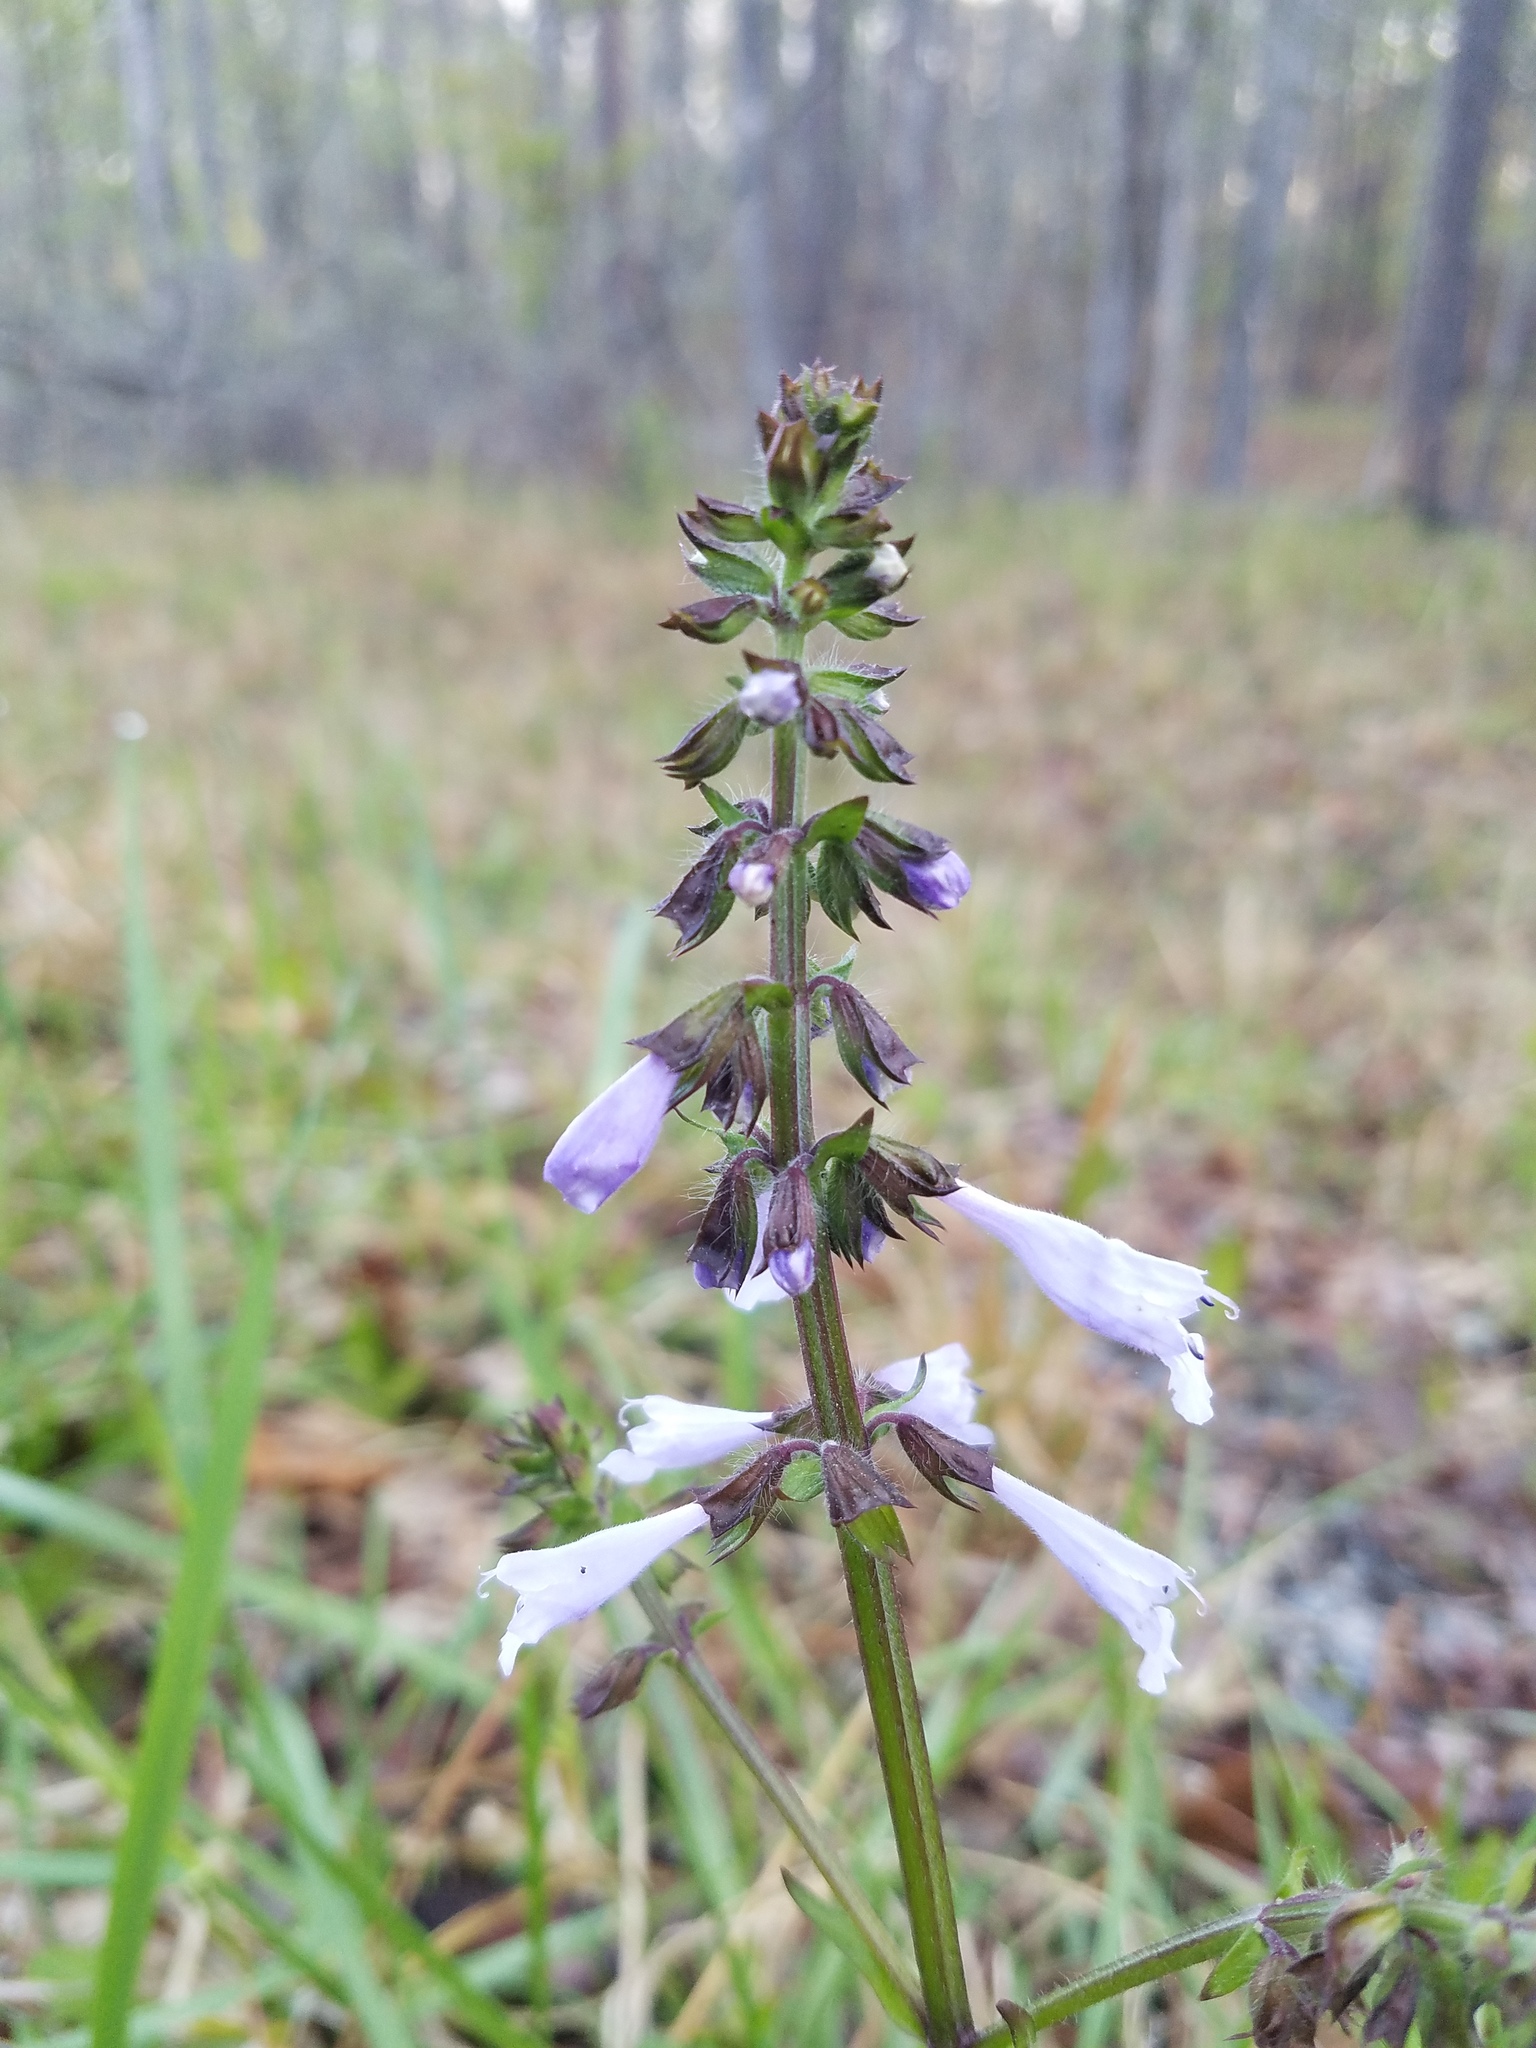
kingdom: Plantae
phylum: Tracheophyta
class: Magnoliopsida
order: Lamiales
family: Lamiaceae
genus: Salvia
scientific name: Salvia lyrata
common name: Cancerweed
